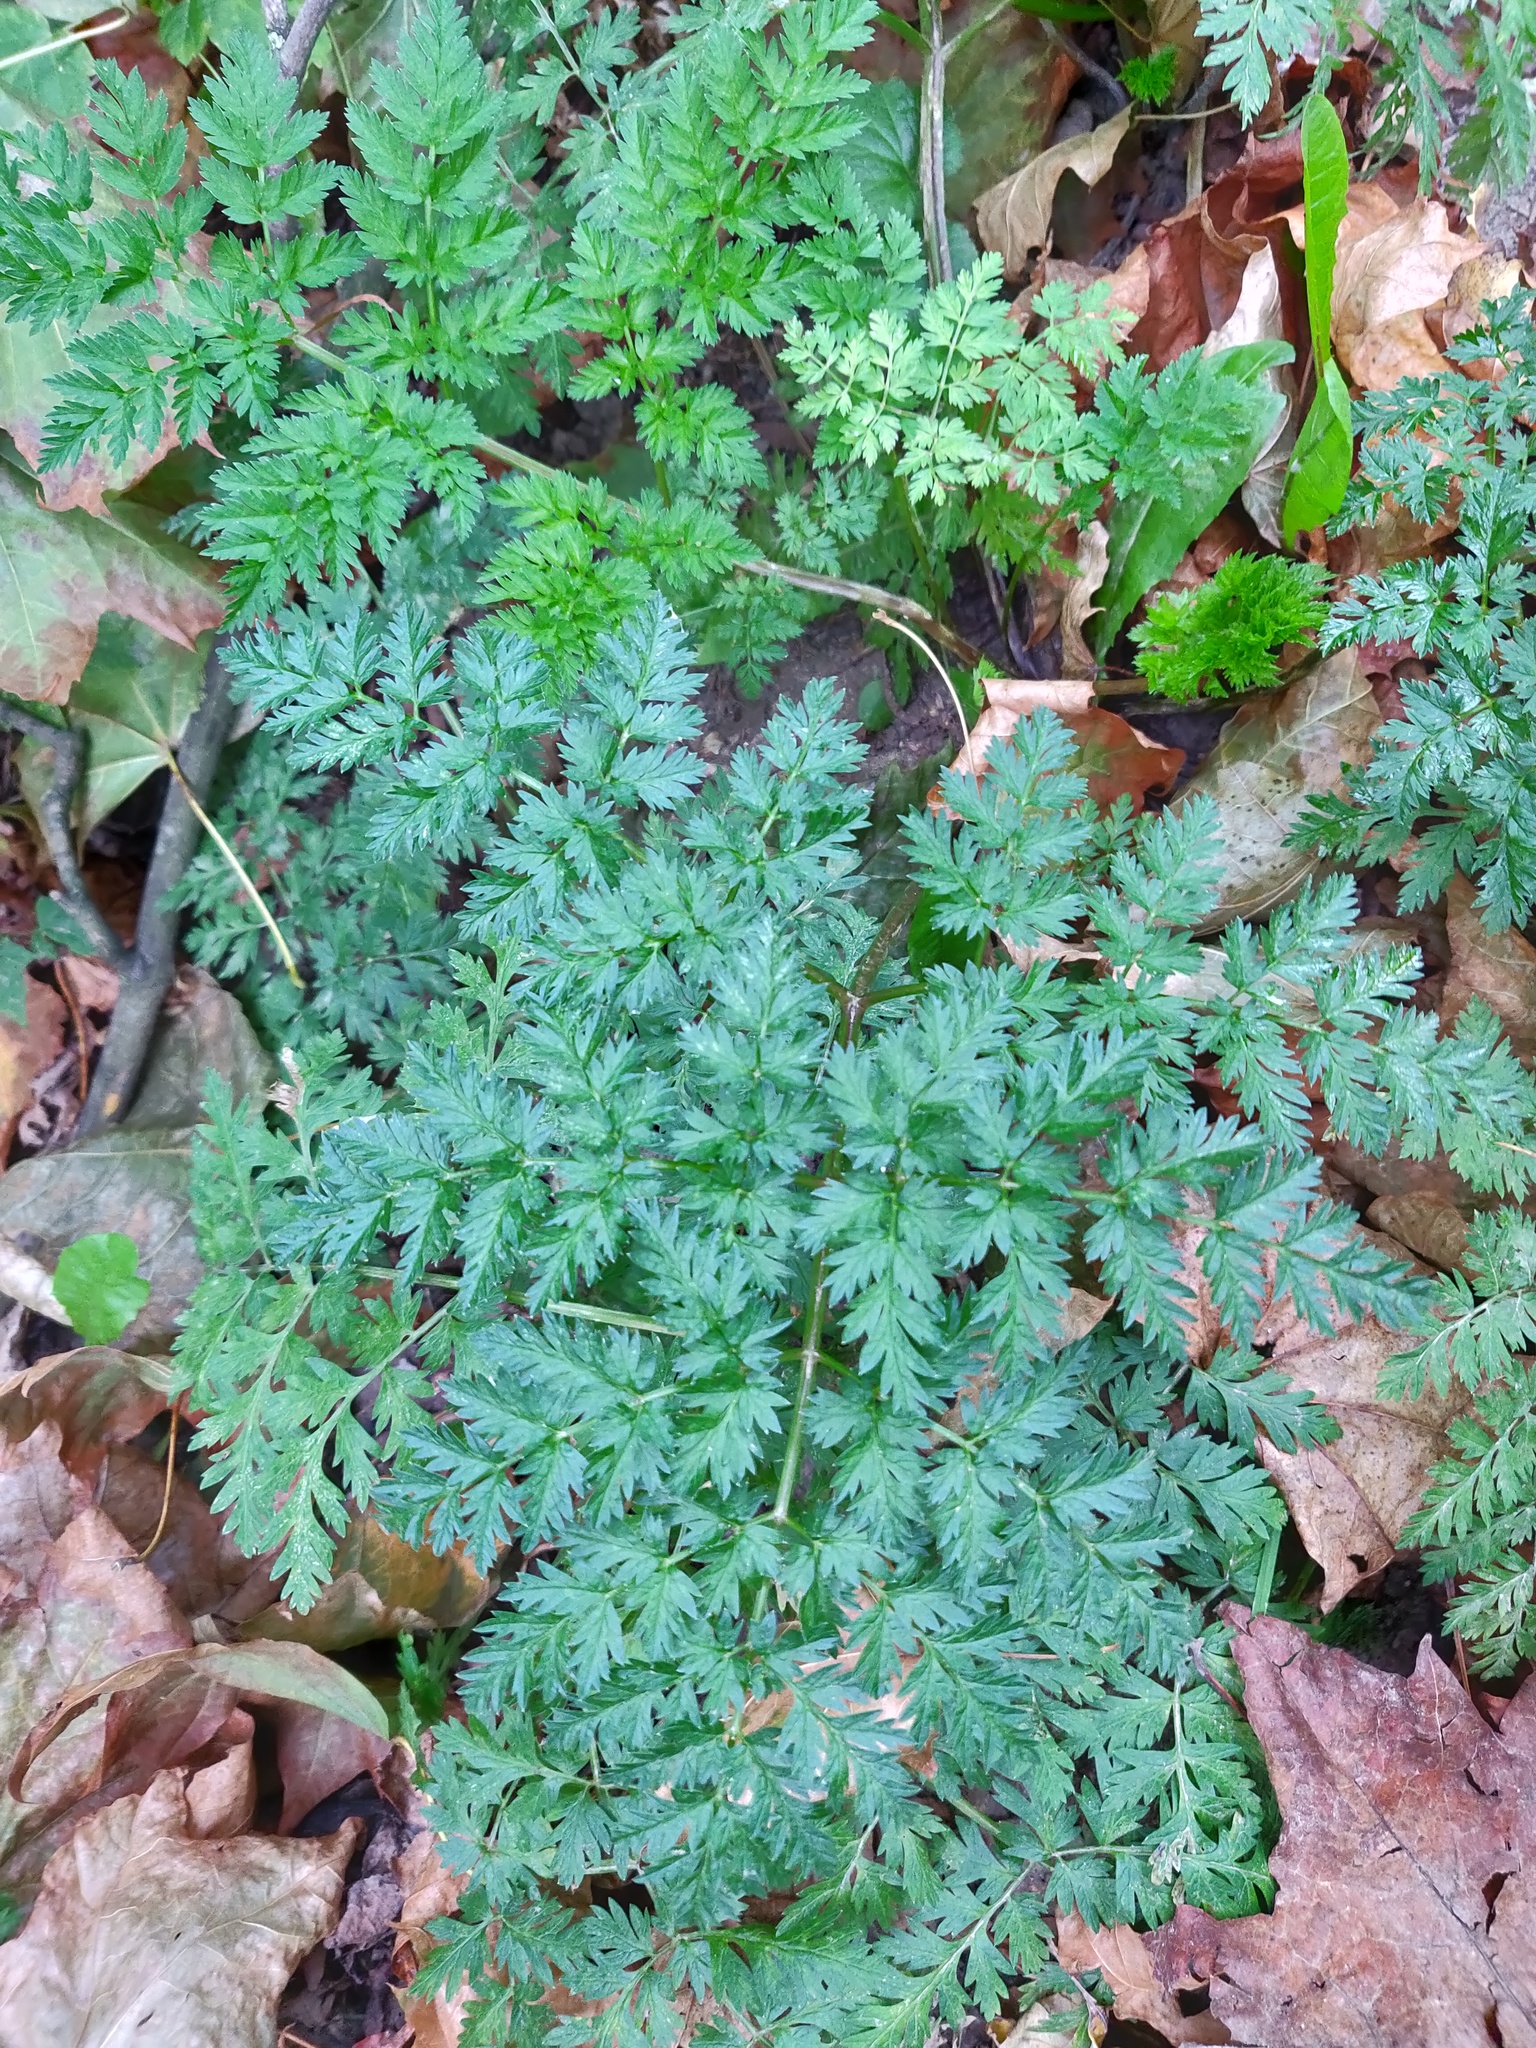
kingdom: Plantae
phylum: Tracheophyta
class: Magnoliopsida
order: Apiales
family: Apiaceae
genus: Anthriscus
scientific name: Anthriscus sylvestris
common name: Cow parsley
